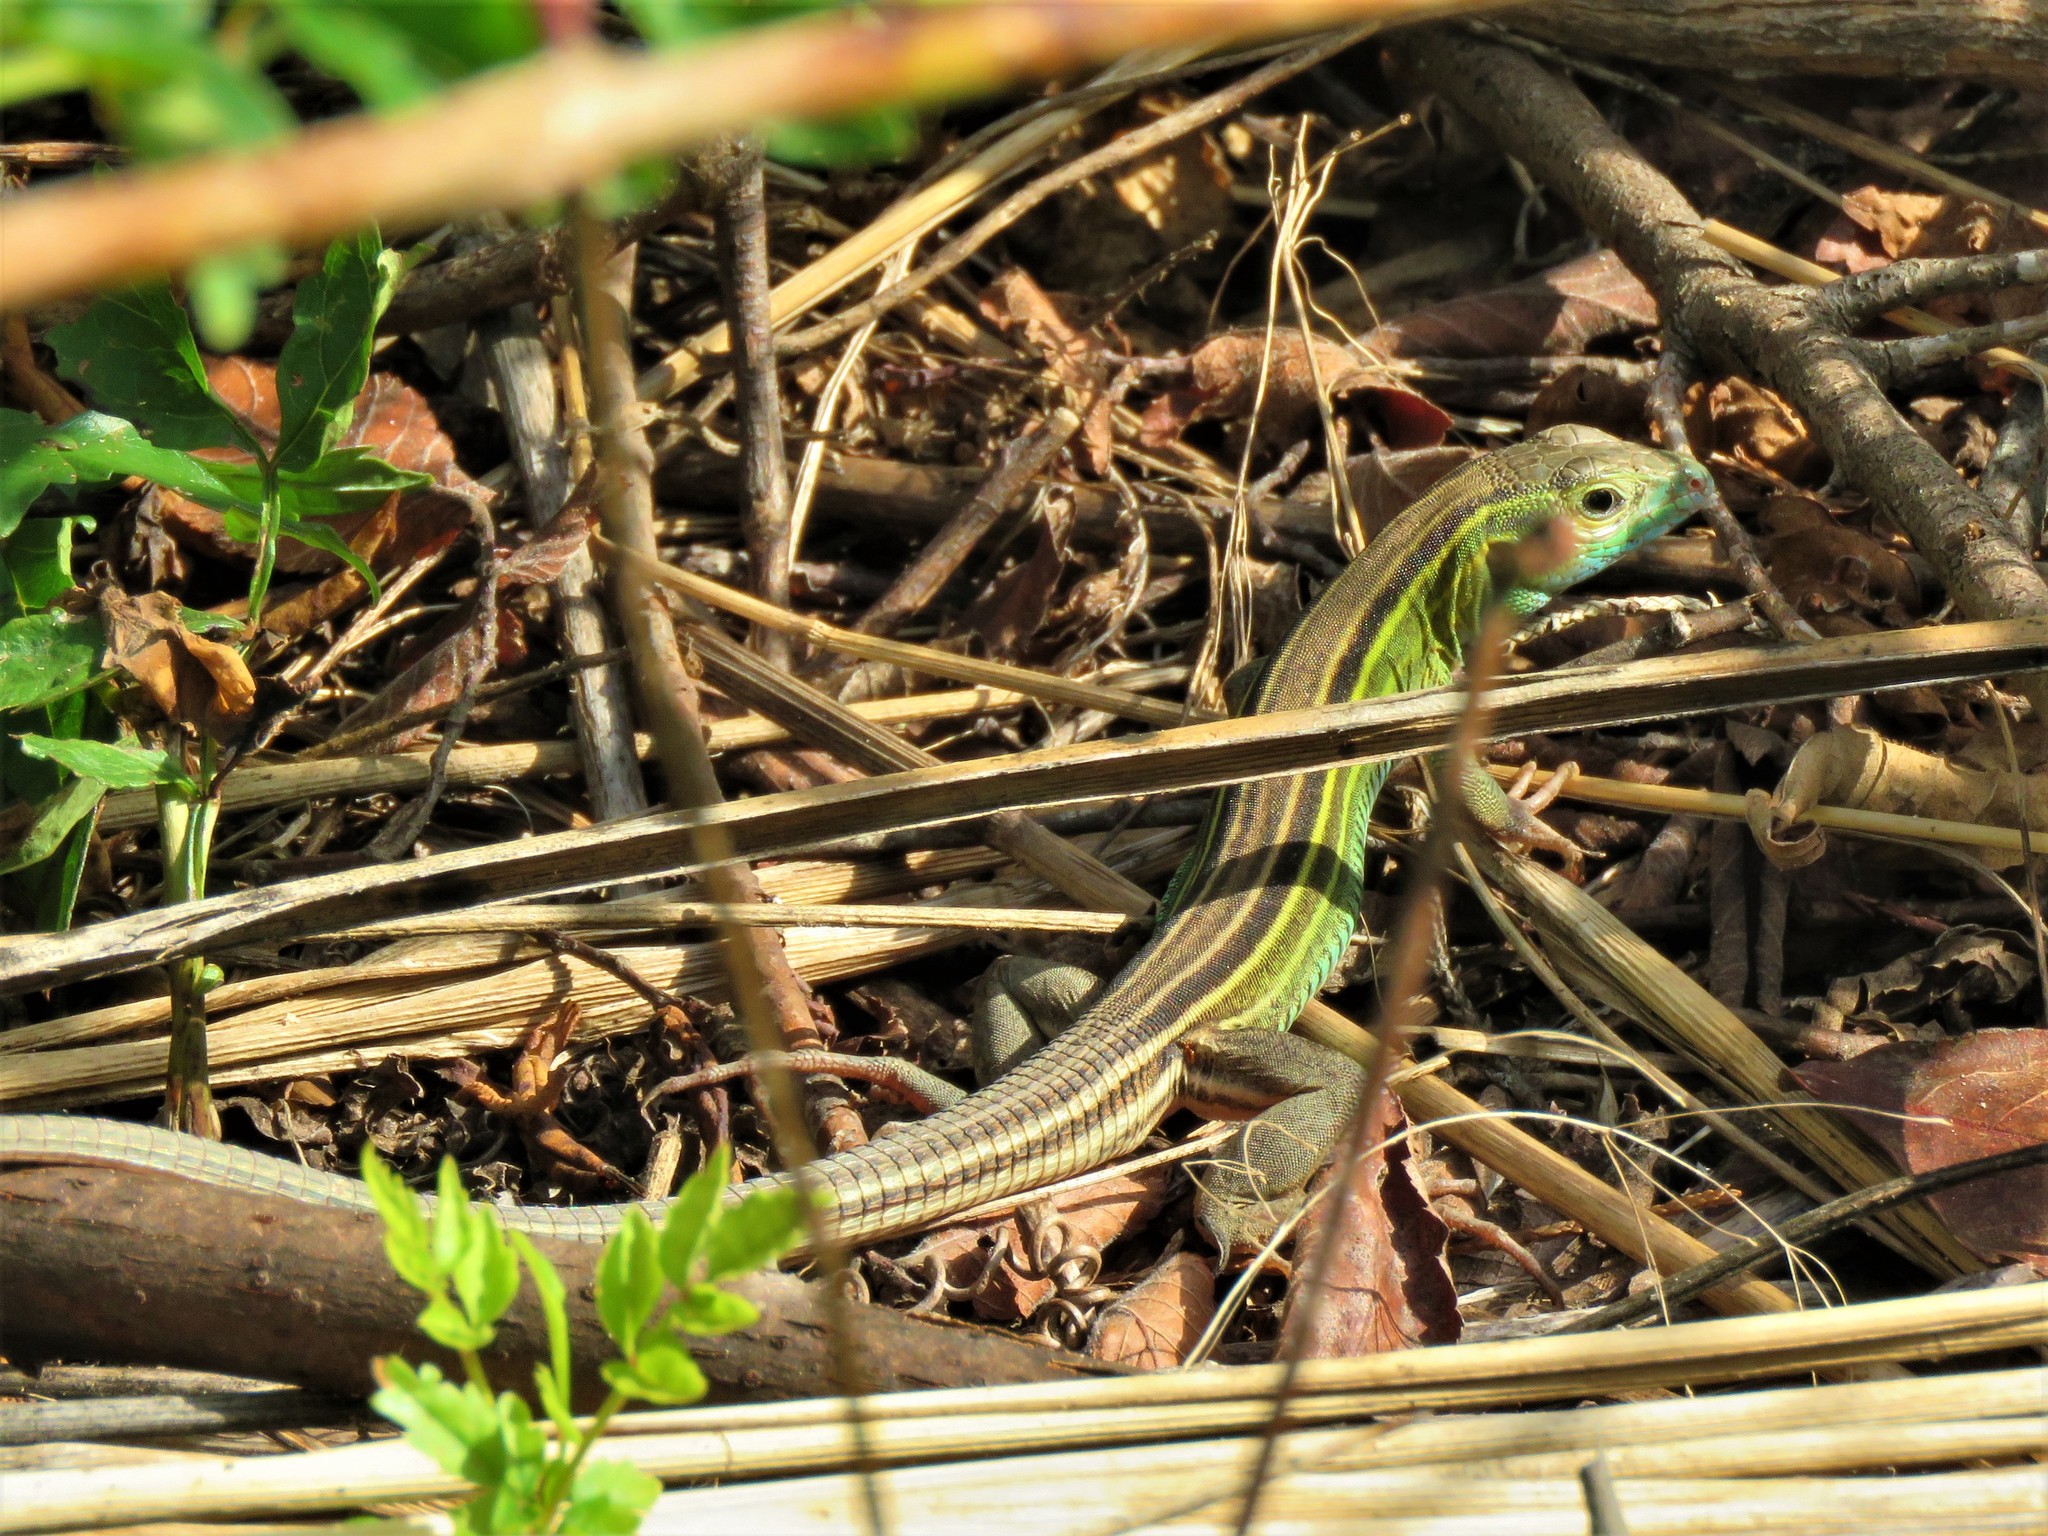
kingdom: Animalia
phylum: Chordata
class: Squamata
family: Teiidae
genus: Aspidoscelis
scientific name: Aspidoscelis sexlineatus
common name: Six-lined racerunner
